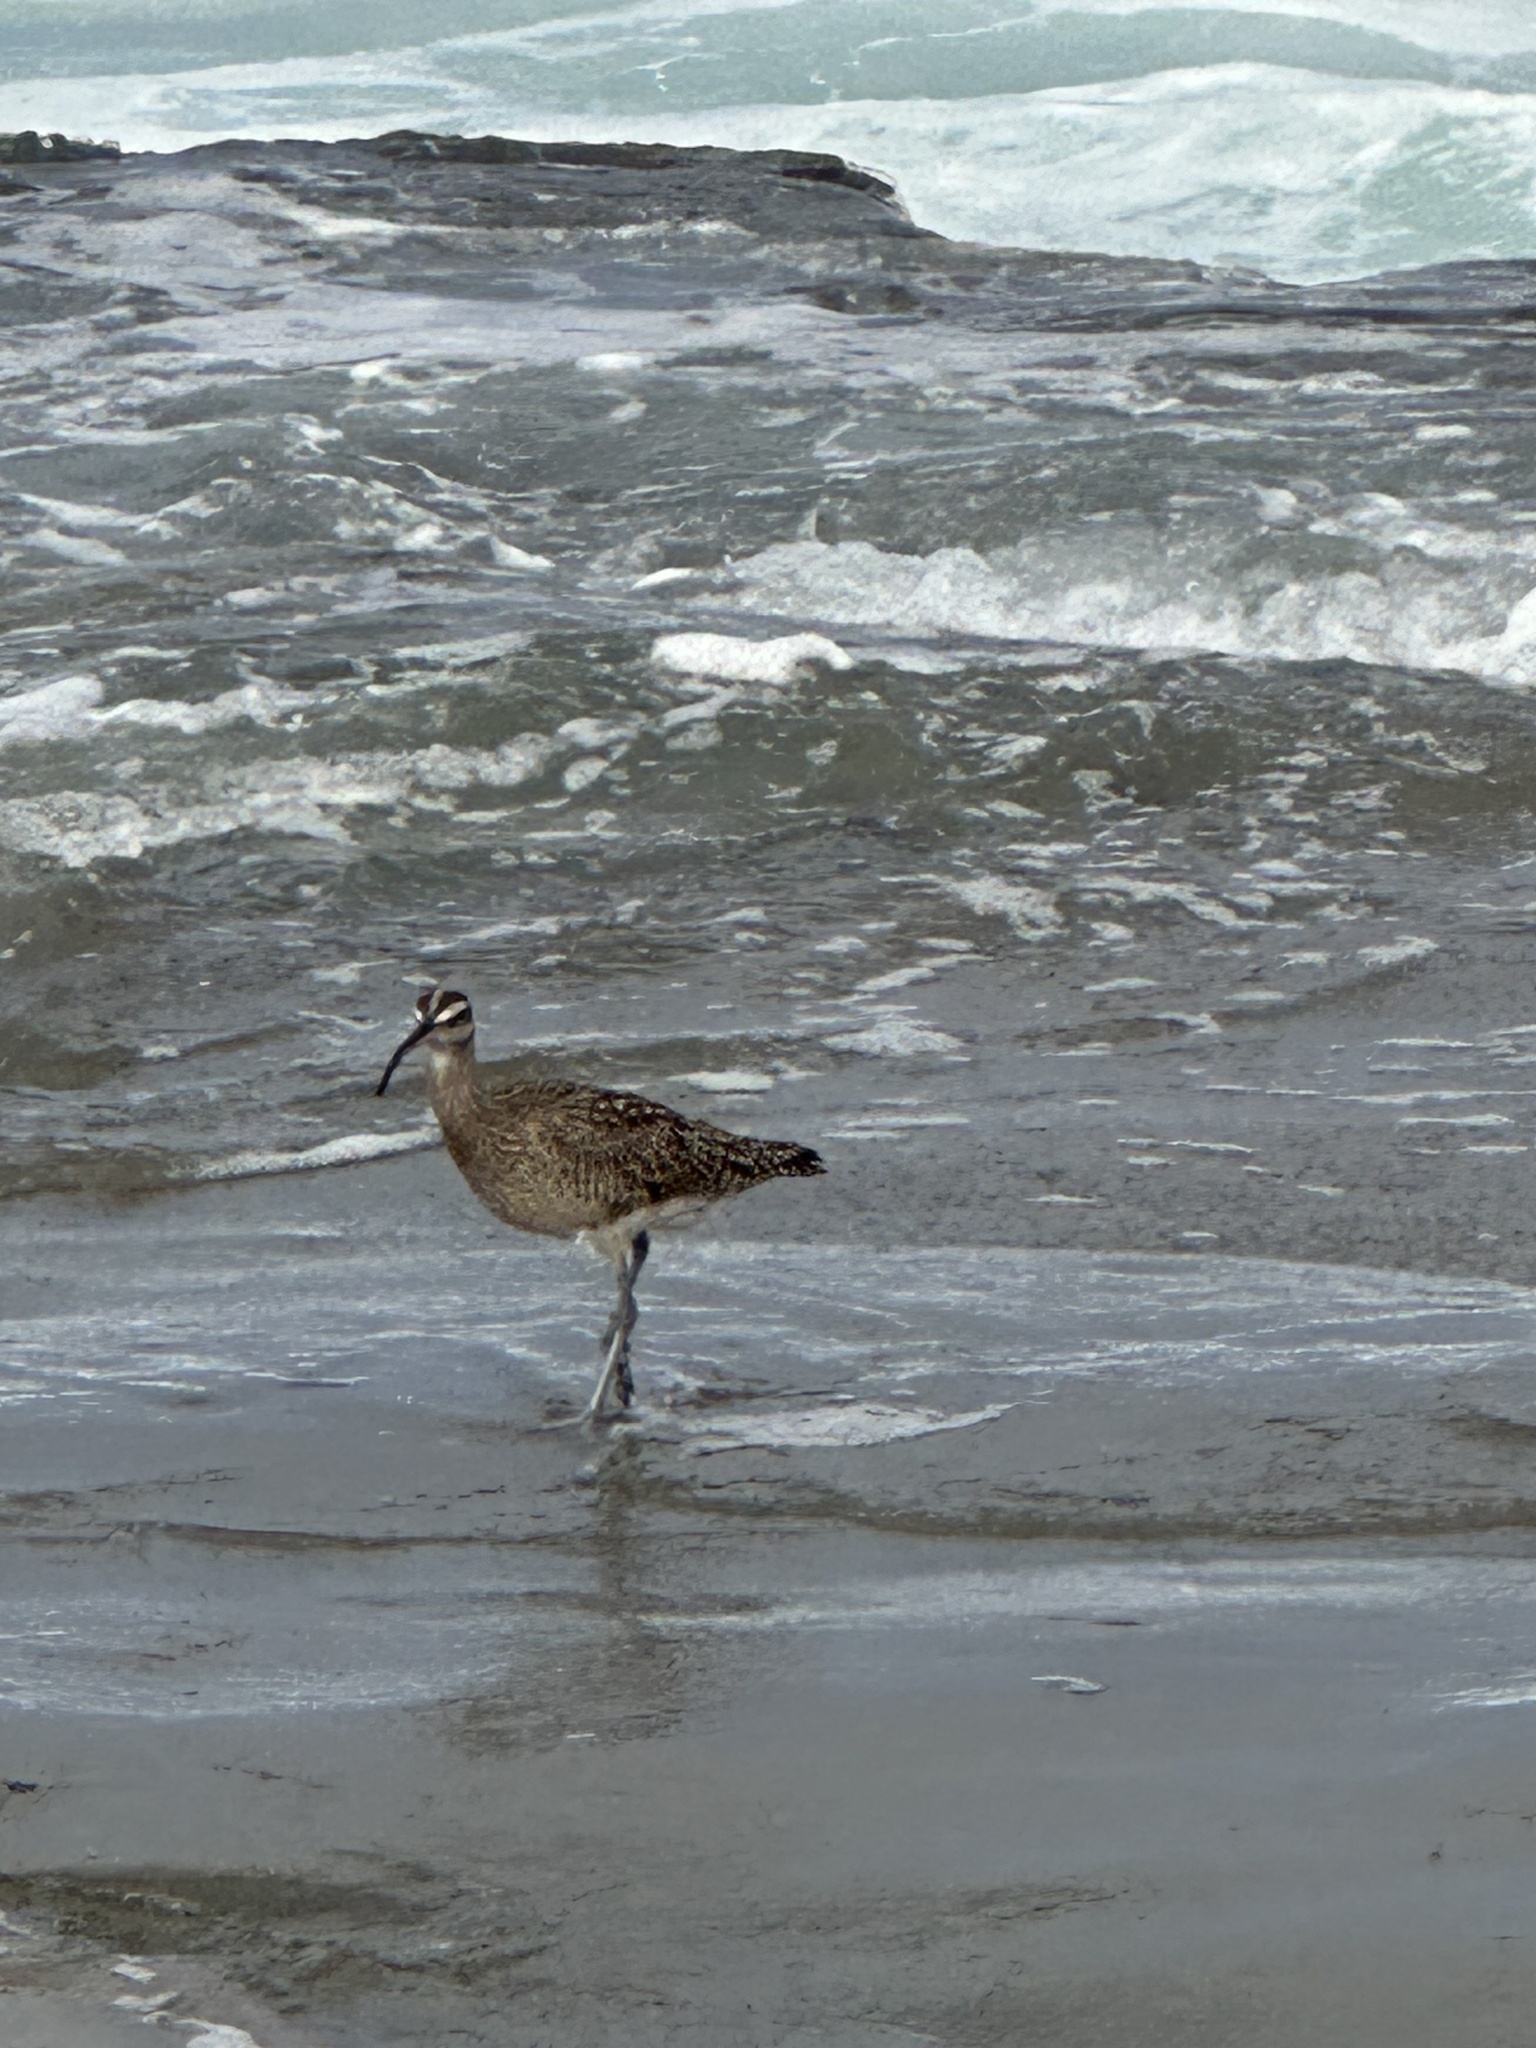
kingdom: Animalia
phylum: Chordata
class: Aves
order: Charadriiformes
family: Scolopacidae
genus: Numenius
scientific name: Numenius phaeopus
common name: Whimbrel
